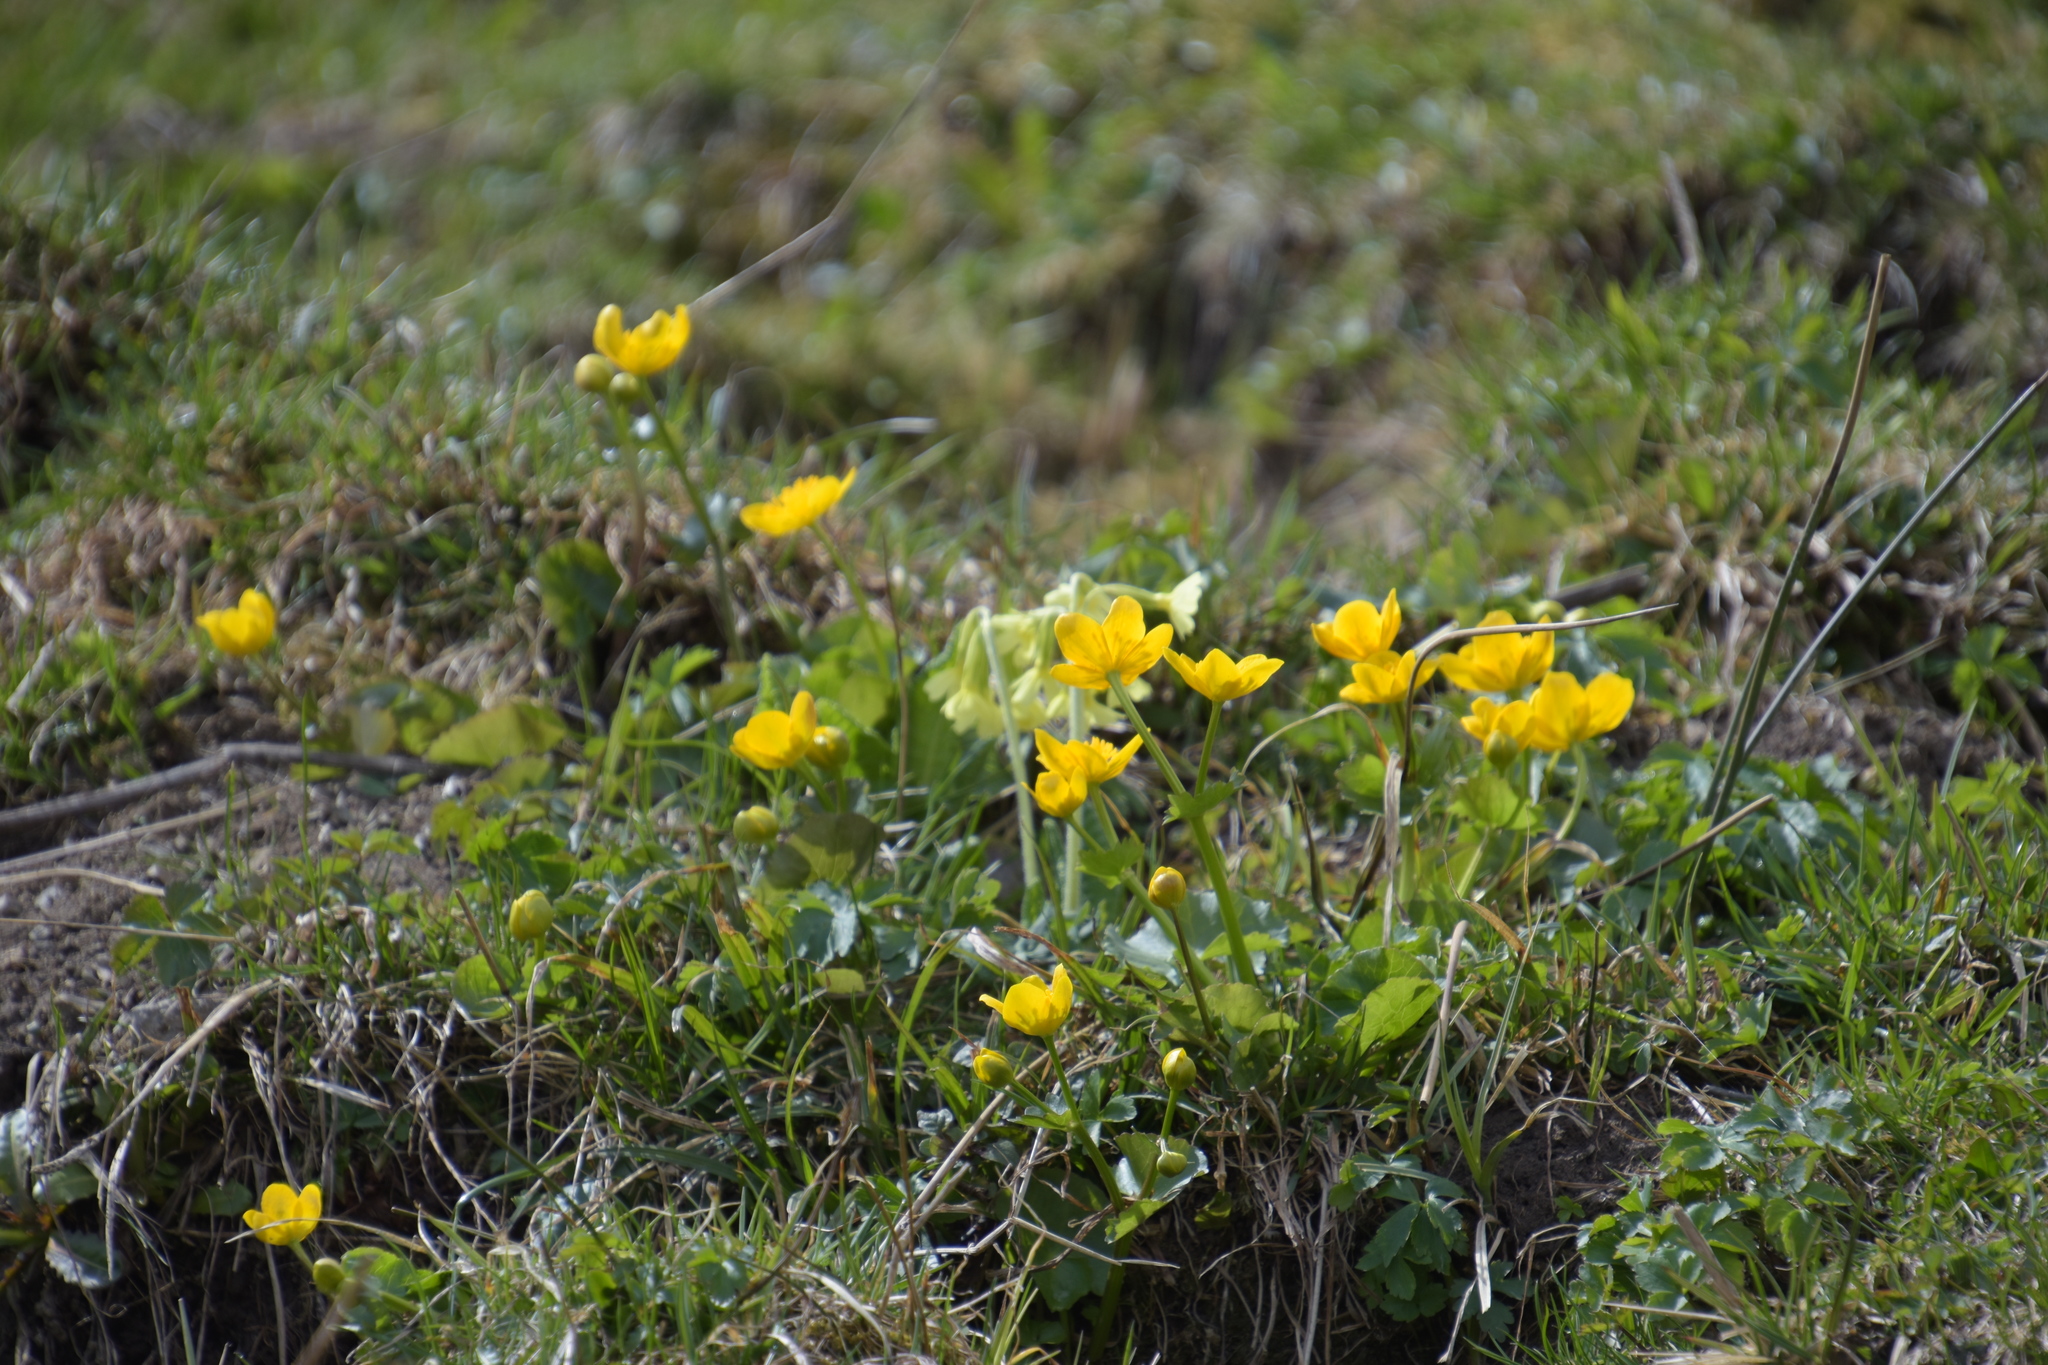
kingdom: Plantae
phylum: Tracheophyta
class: Magnoliopsida
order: Ranunculales
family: Ranunculaceae
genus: Caltha
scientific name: Caltha palustris
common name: Marsh marigold
